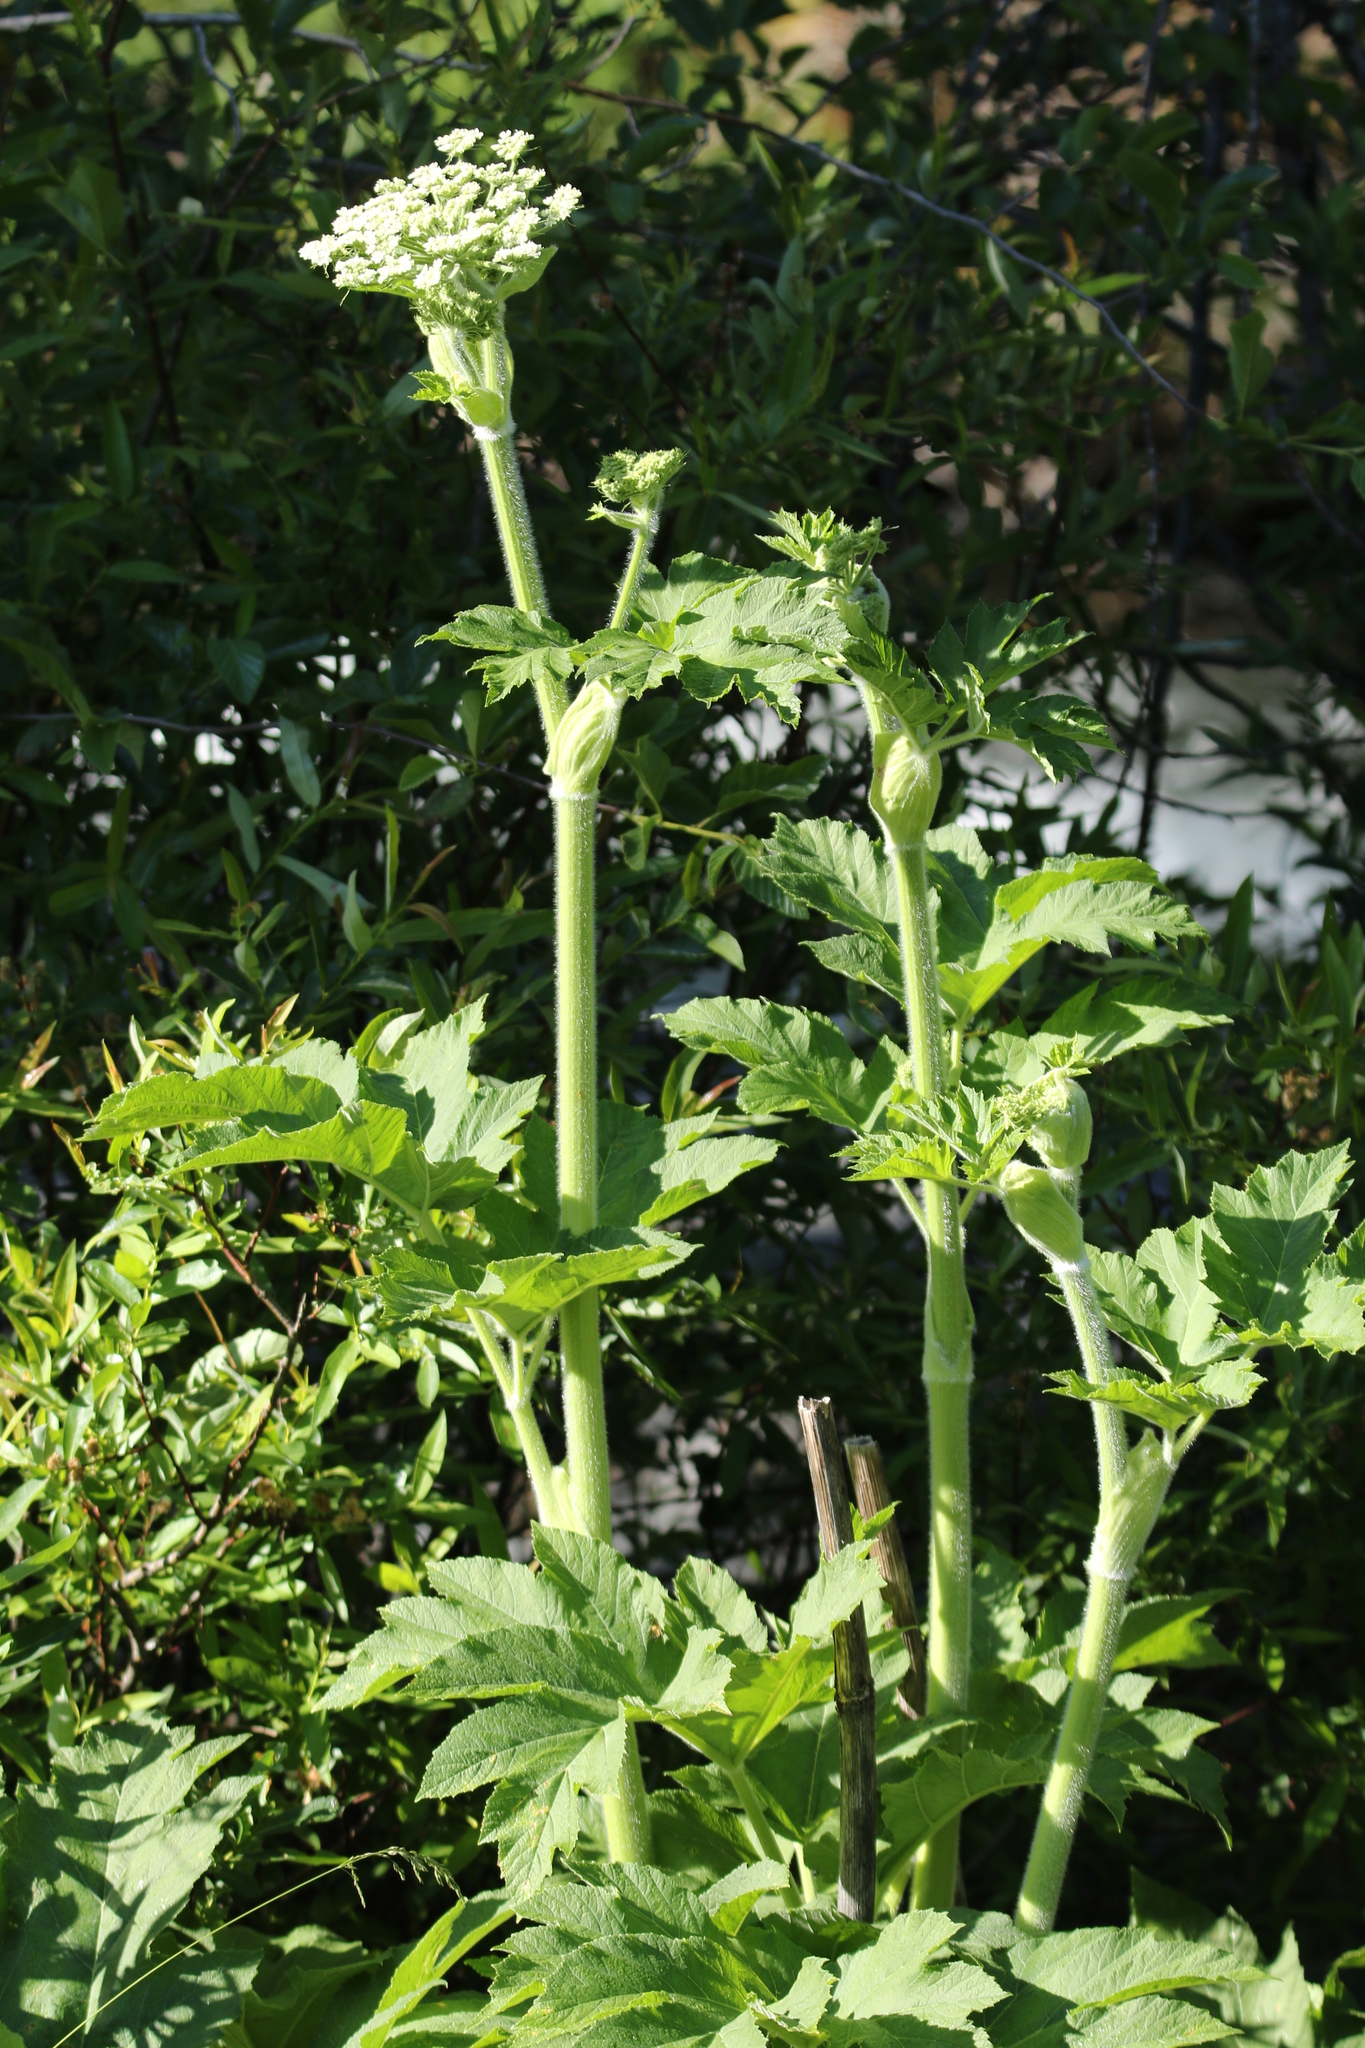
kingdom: Plantae
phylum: Tracheophyta
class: Magnoliopsida
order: Apiales
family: Apiaceae
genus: Heracleum
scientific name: Heracleum maximum
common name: American cow parsnip
